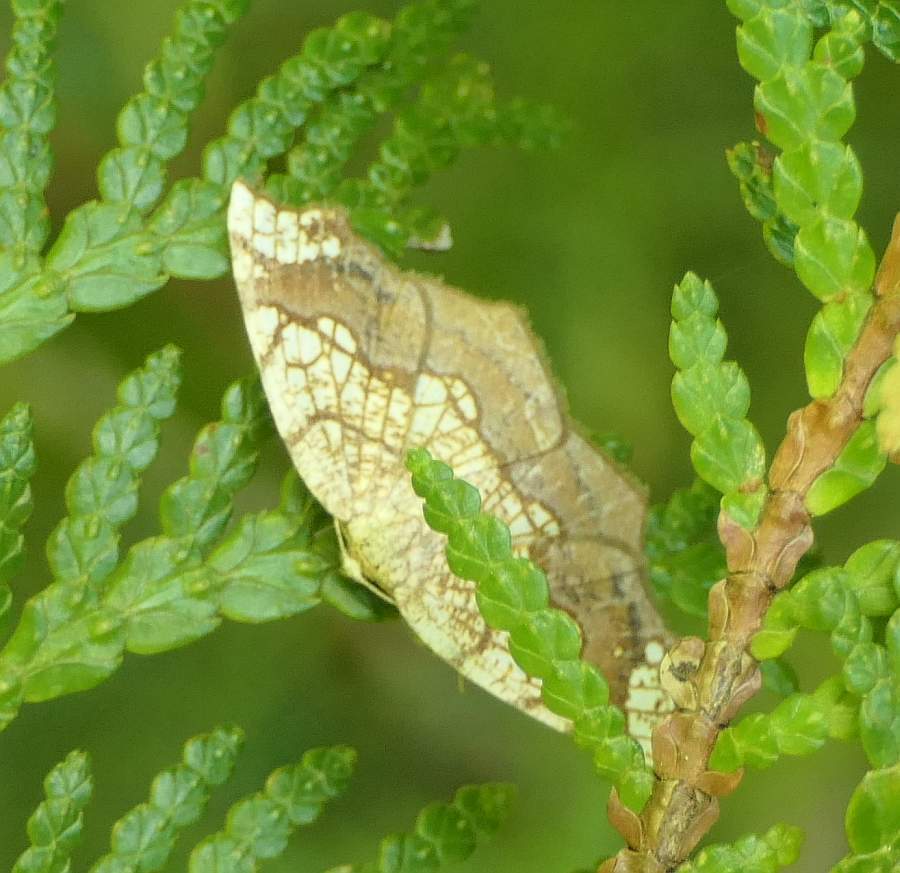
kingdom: Animalia
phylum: Arthropoda
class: Insecta
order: Lepidoptera
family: Geometridae
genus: Nematocampa
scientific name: Nematocampa resistaria
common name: Horned spanworm moth
